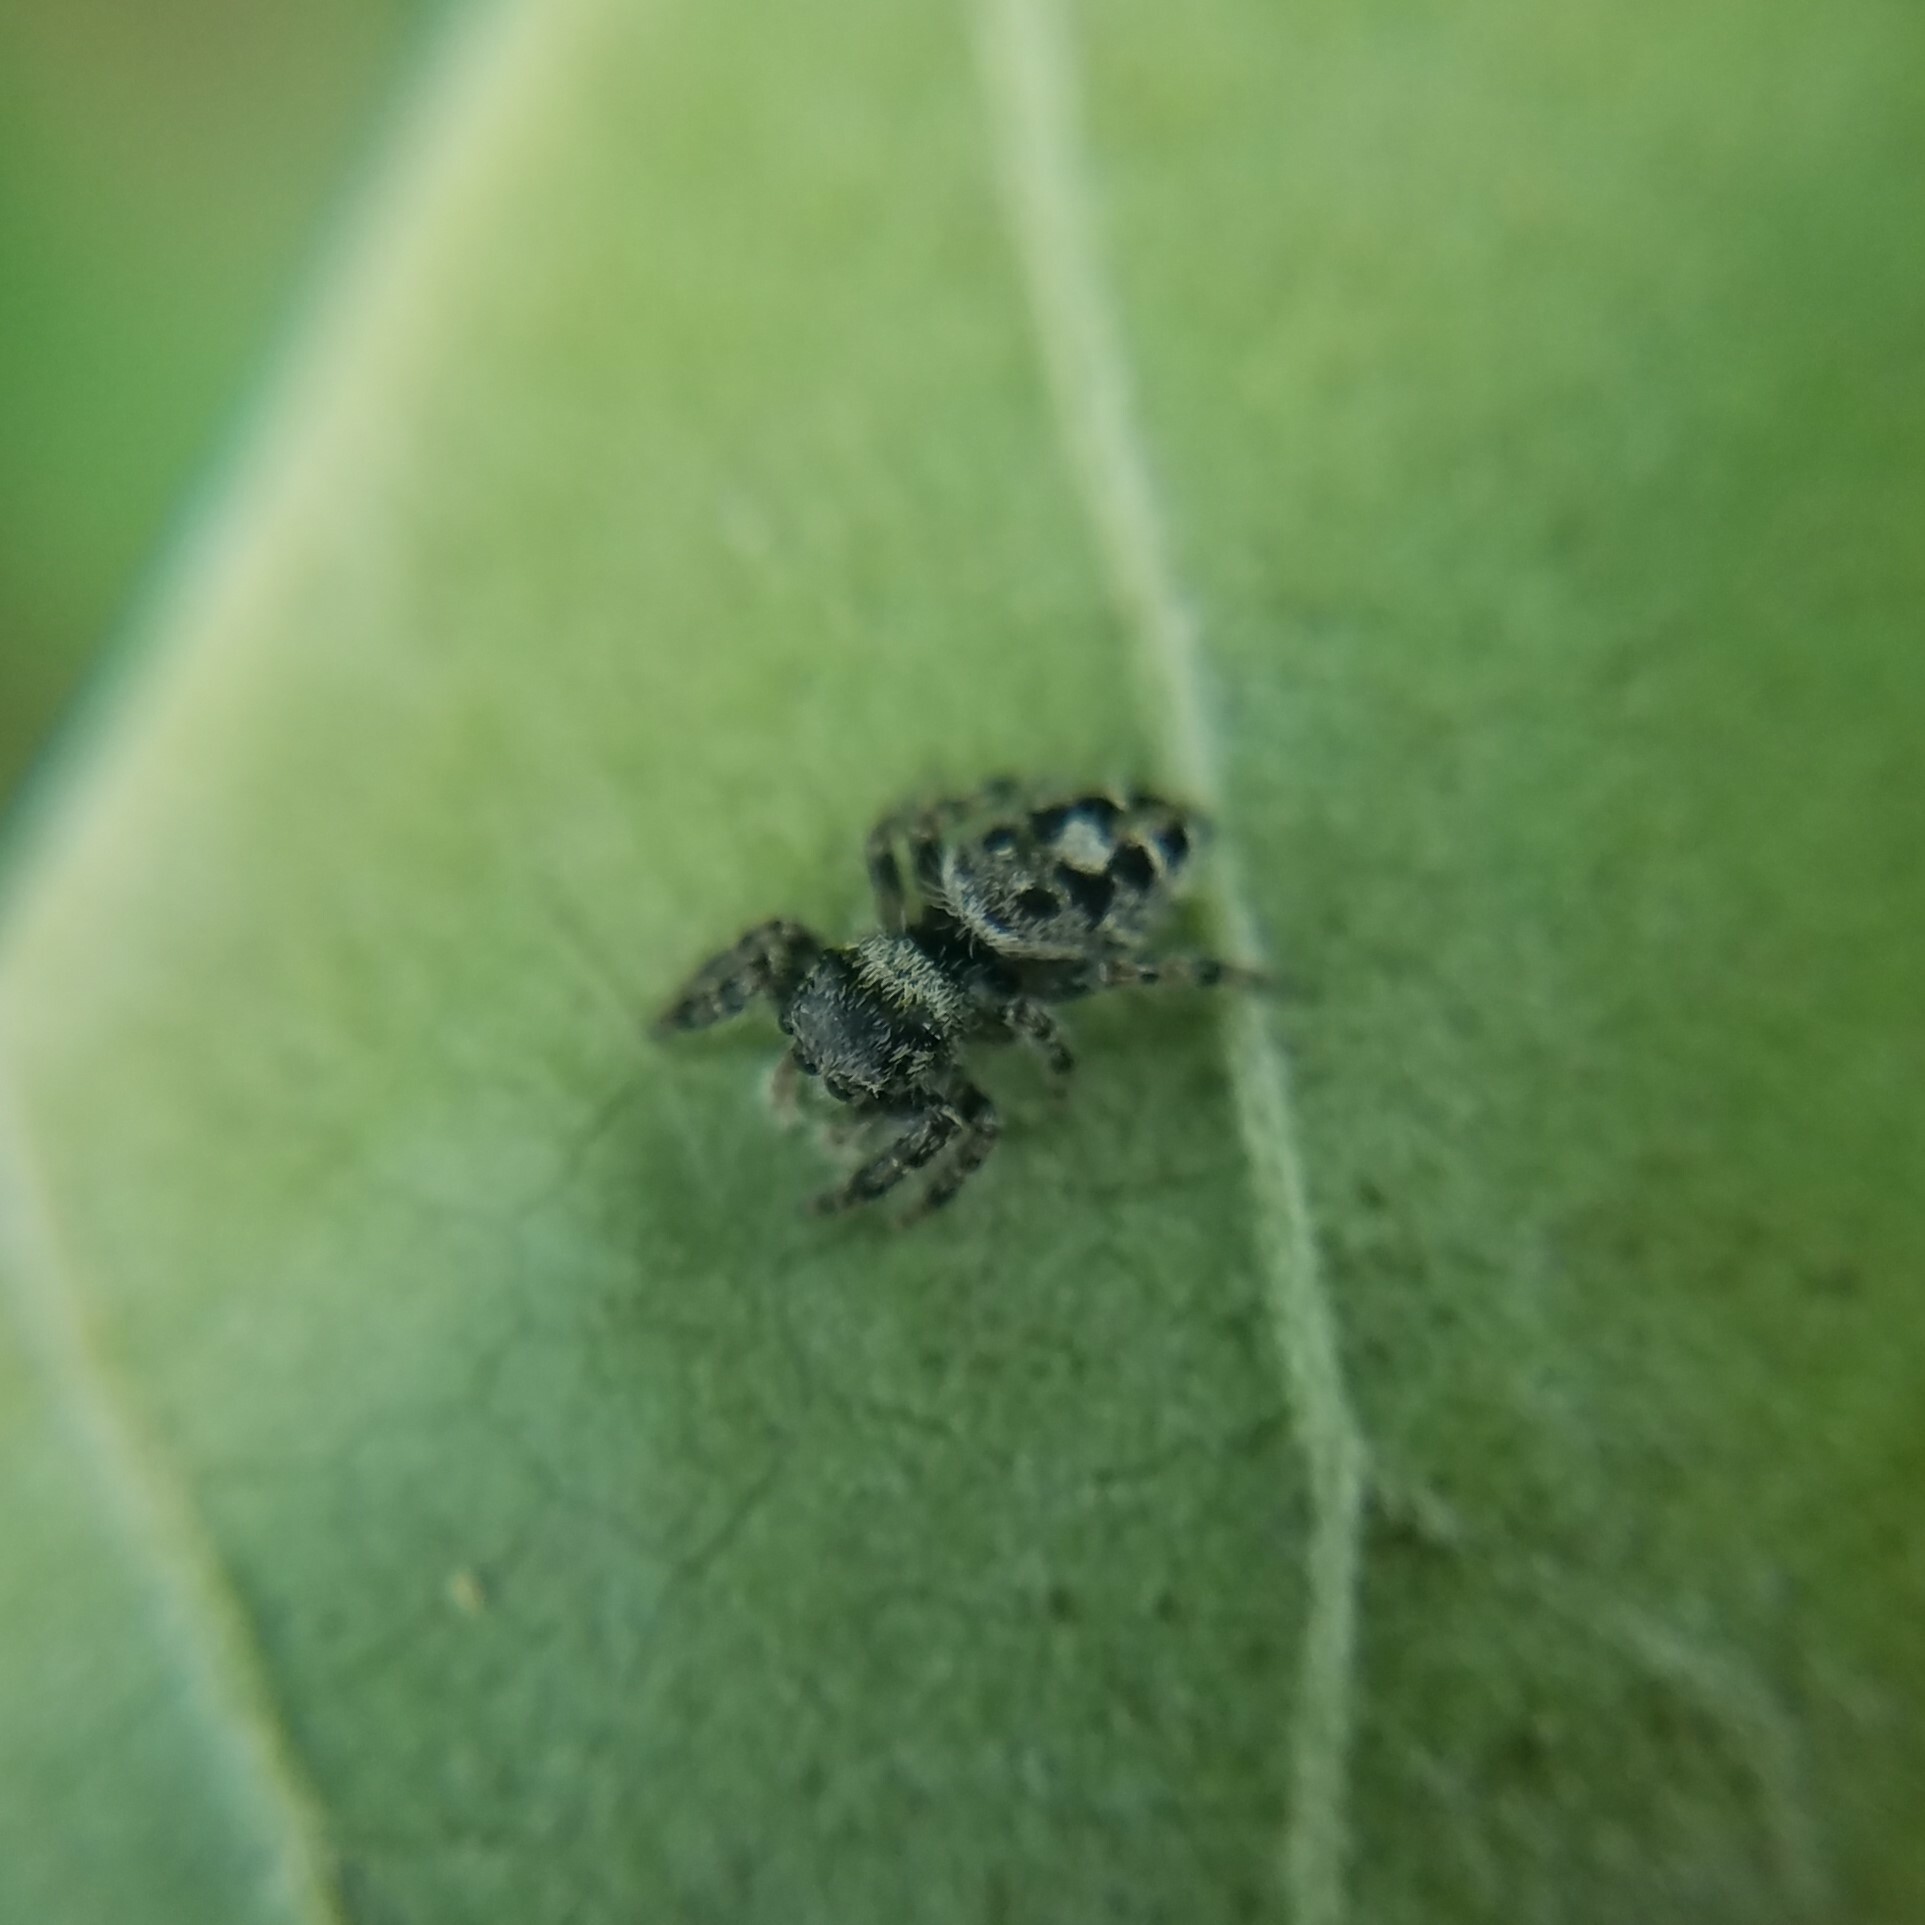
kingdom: Animalia
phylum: Arthropoda
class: Arachnida
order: Araneae
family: Salticidae
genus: Phidippus
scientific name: Phidippus putnami
